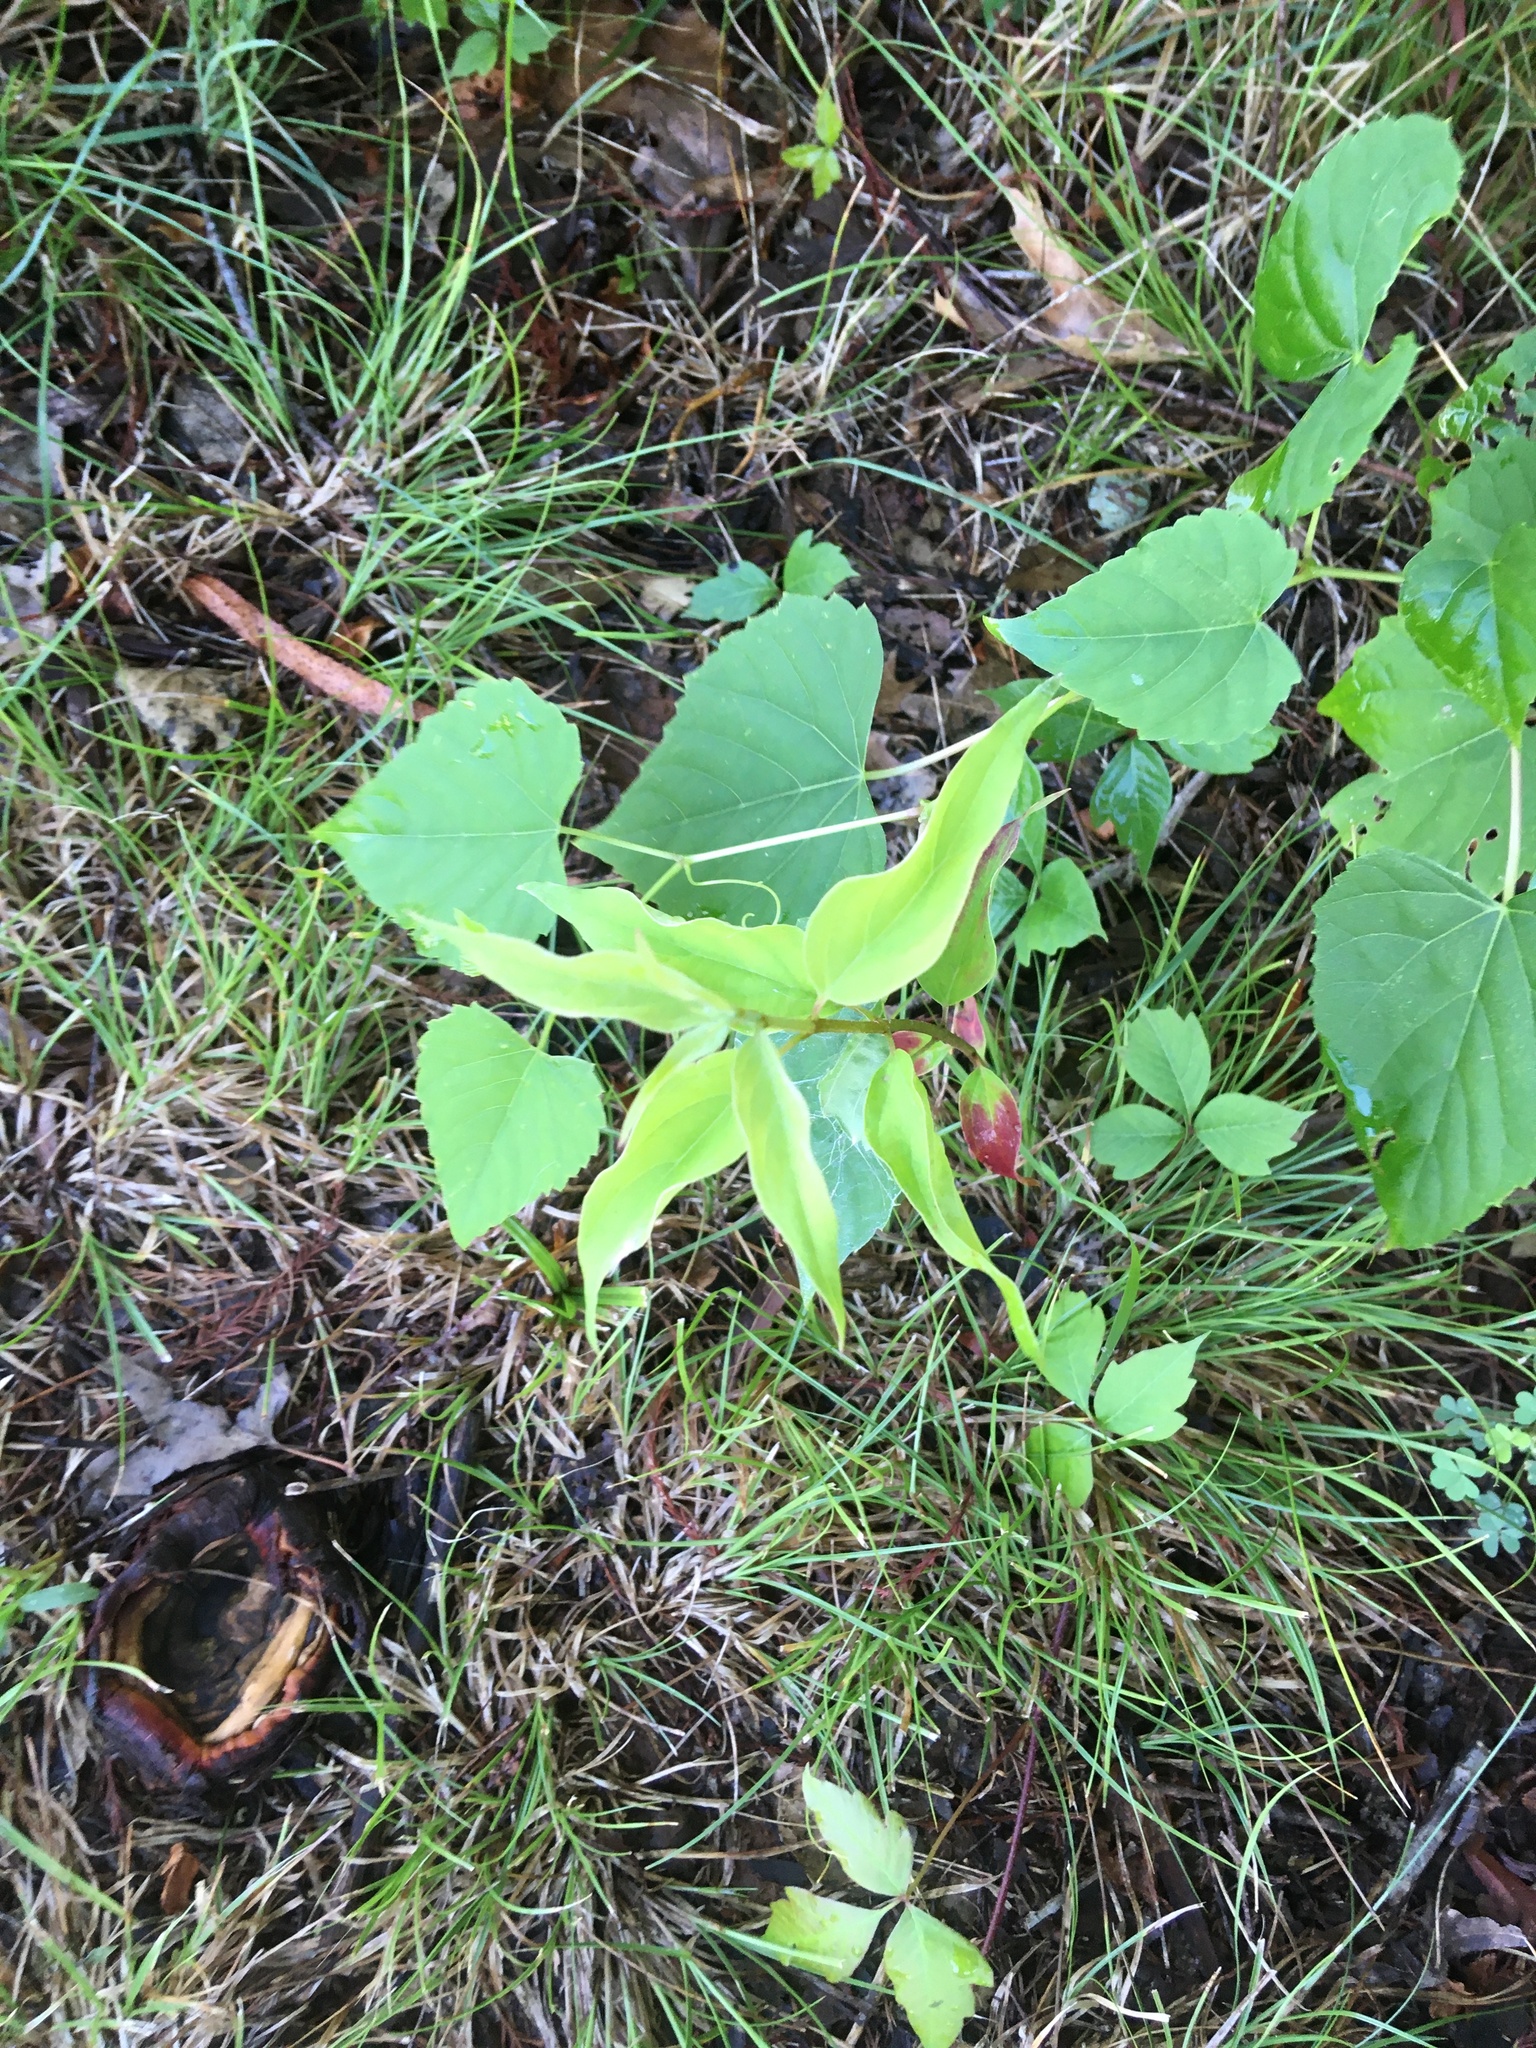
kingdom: Plantae
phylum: Tracheophyta
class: Magnoliopsida
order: Vitales
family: Vitaceae
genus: Ampelopsis
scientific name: Ampelopsis cordata
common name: Heart-leaf ampelopsis
